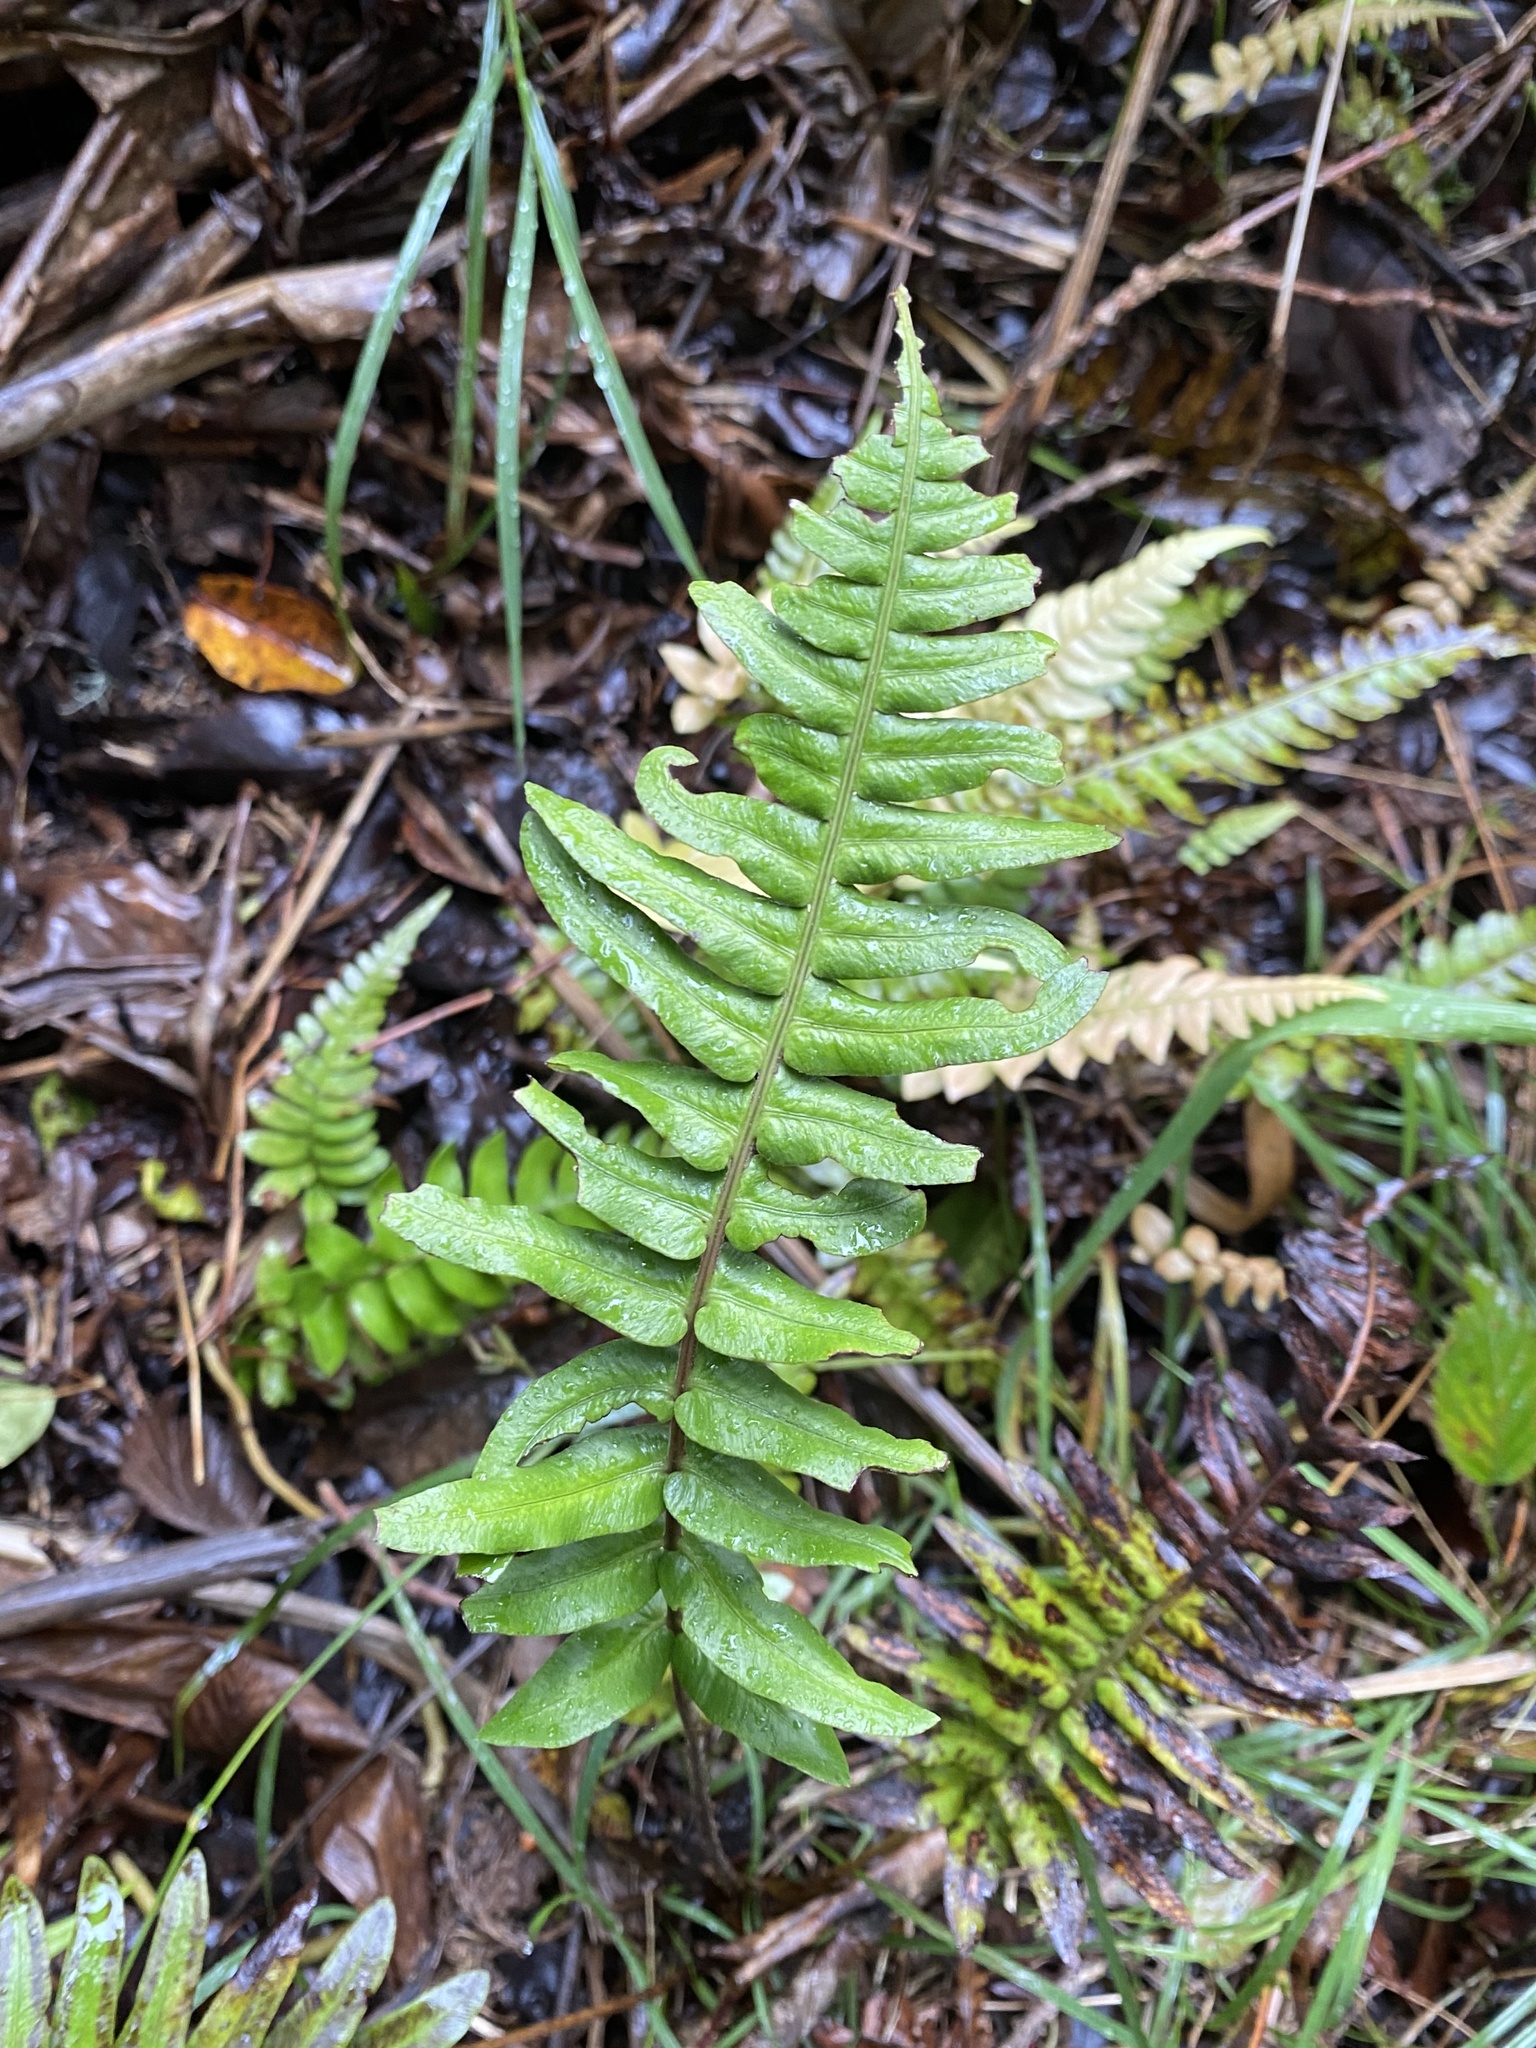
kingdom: Plantae
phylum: Tracheophyta
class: Polypodiopsida
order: Polypodiales
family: Blechnaceae
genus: Blechnum
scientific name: Blechnum appendiculatum
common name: Palm fern
